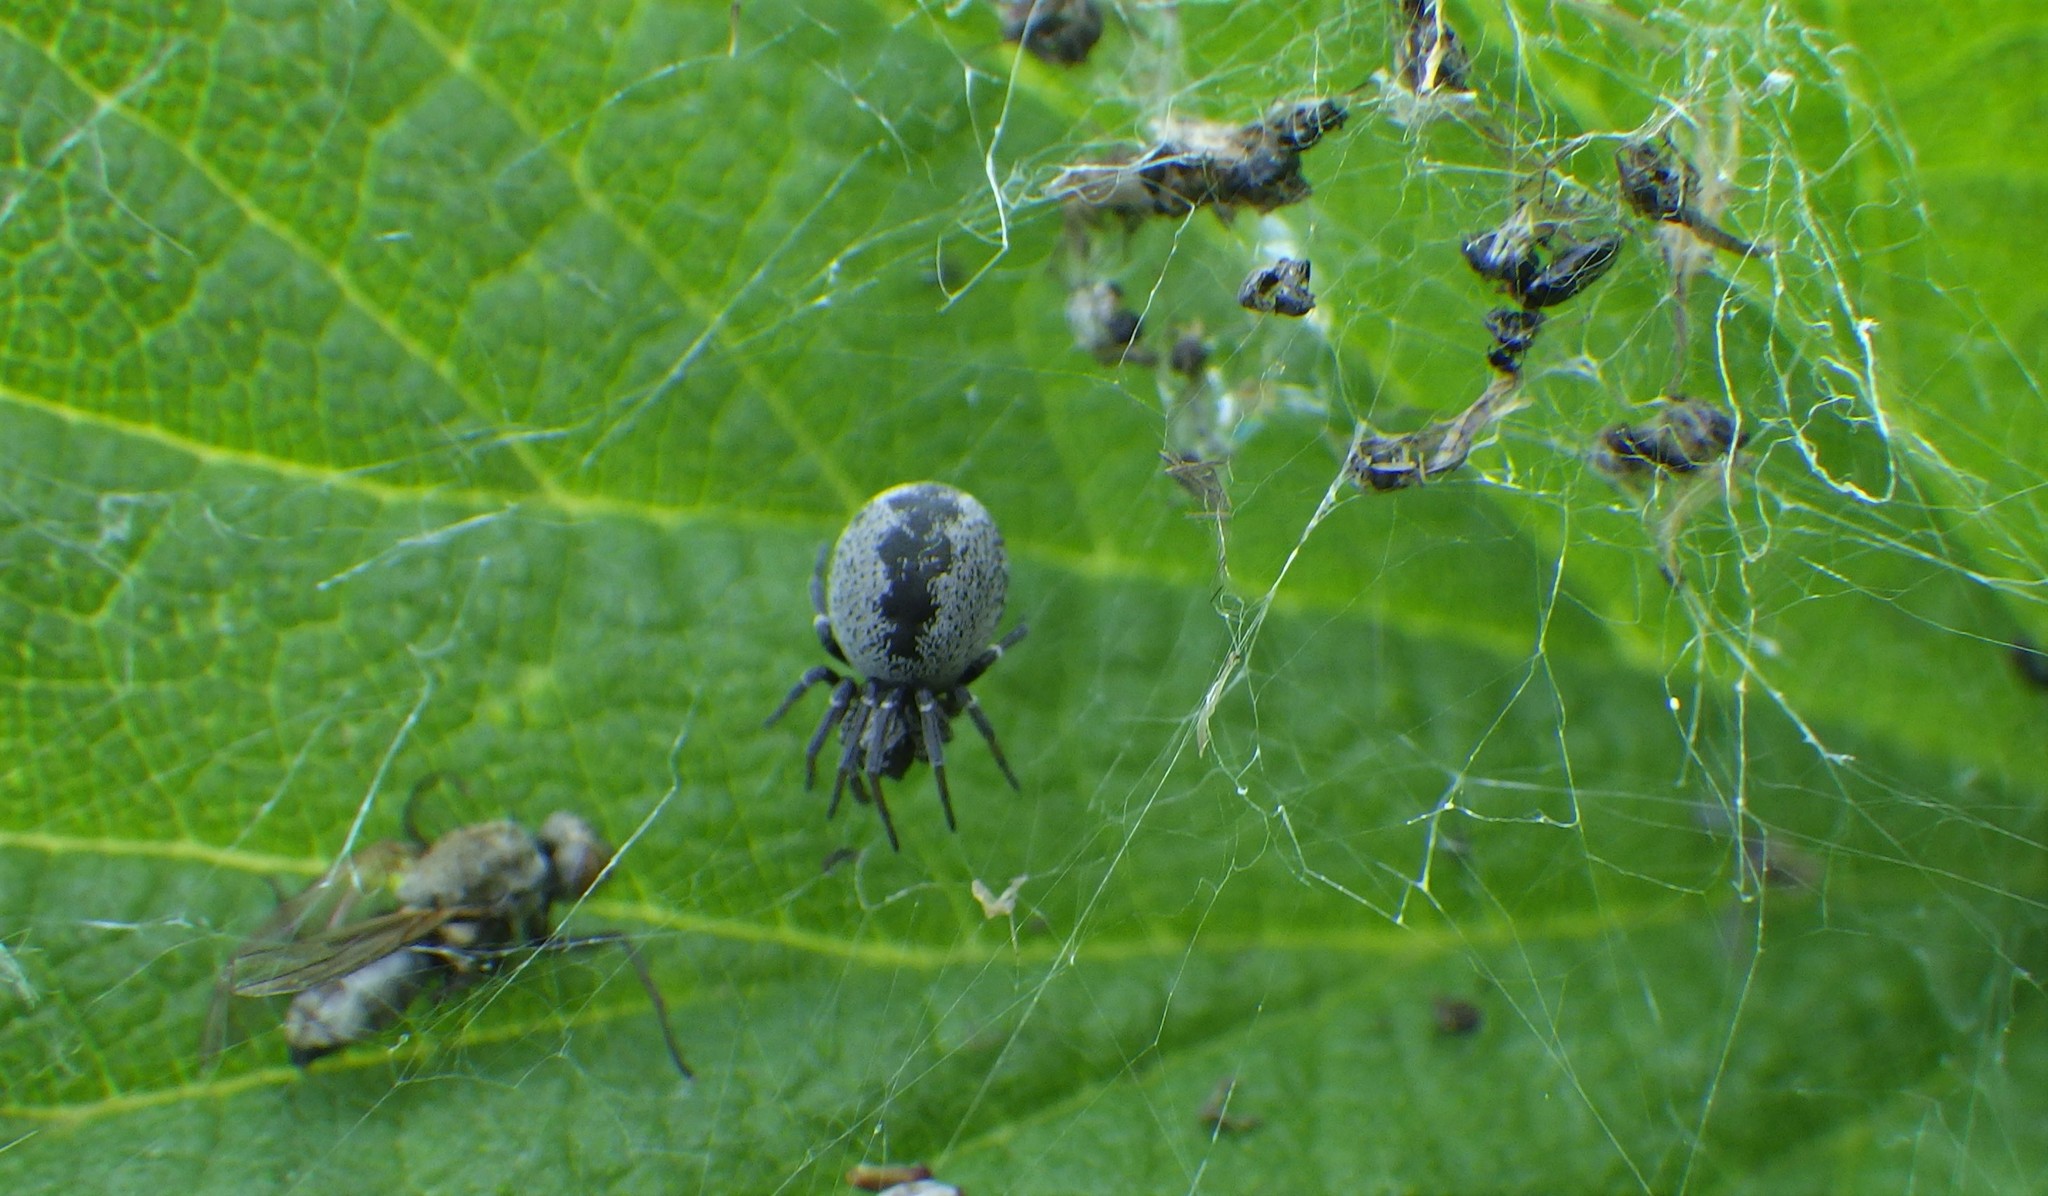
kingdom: Animalia
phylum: Arthropoda
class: Arachnida
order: Araneae
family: Dictynidae
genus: Brigittea
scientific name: Brigittea latens
